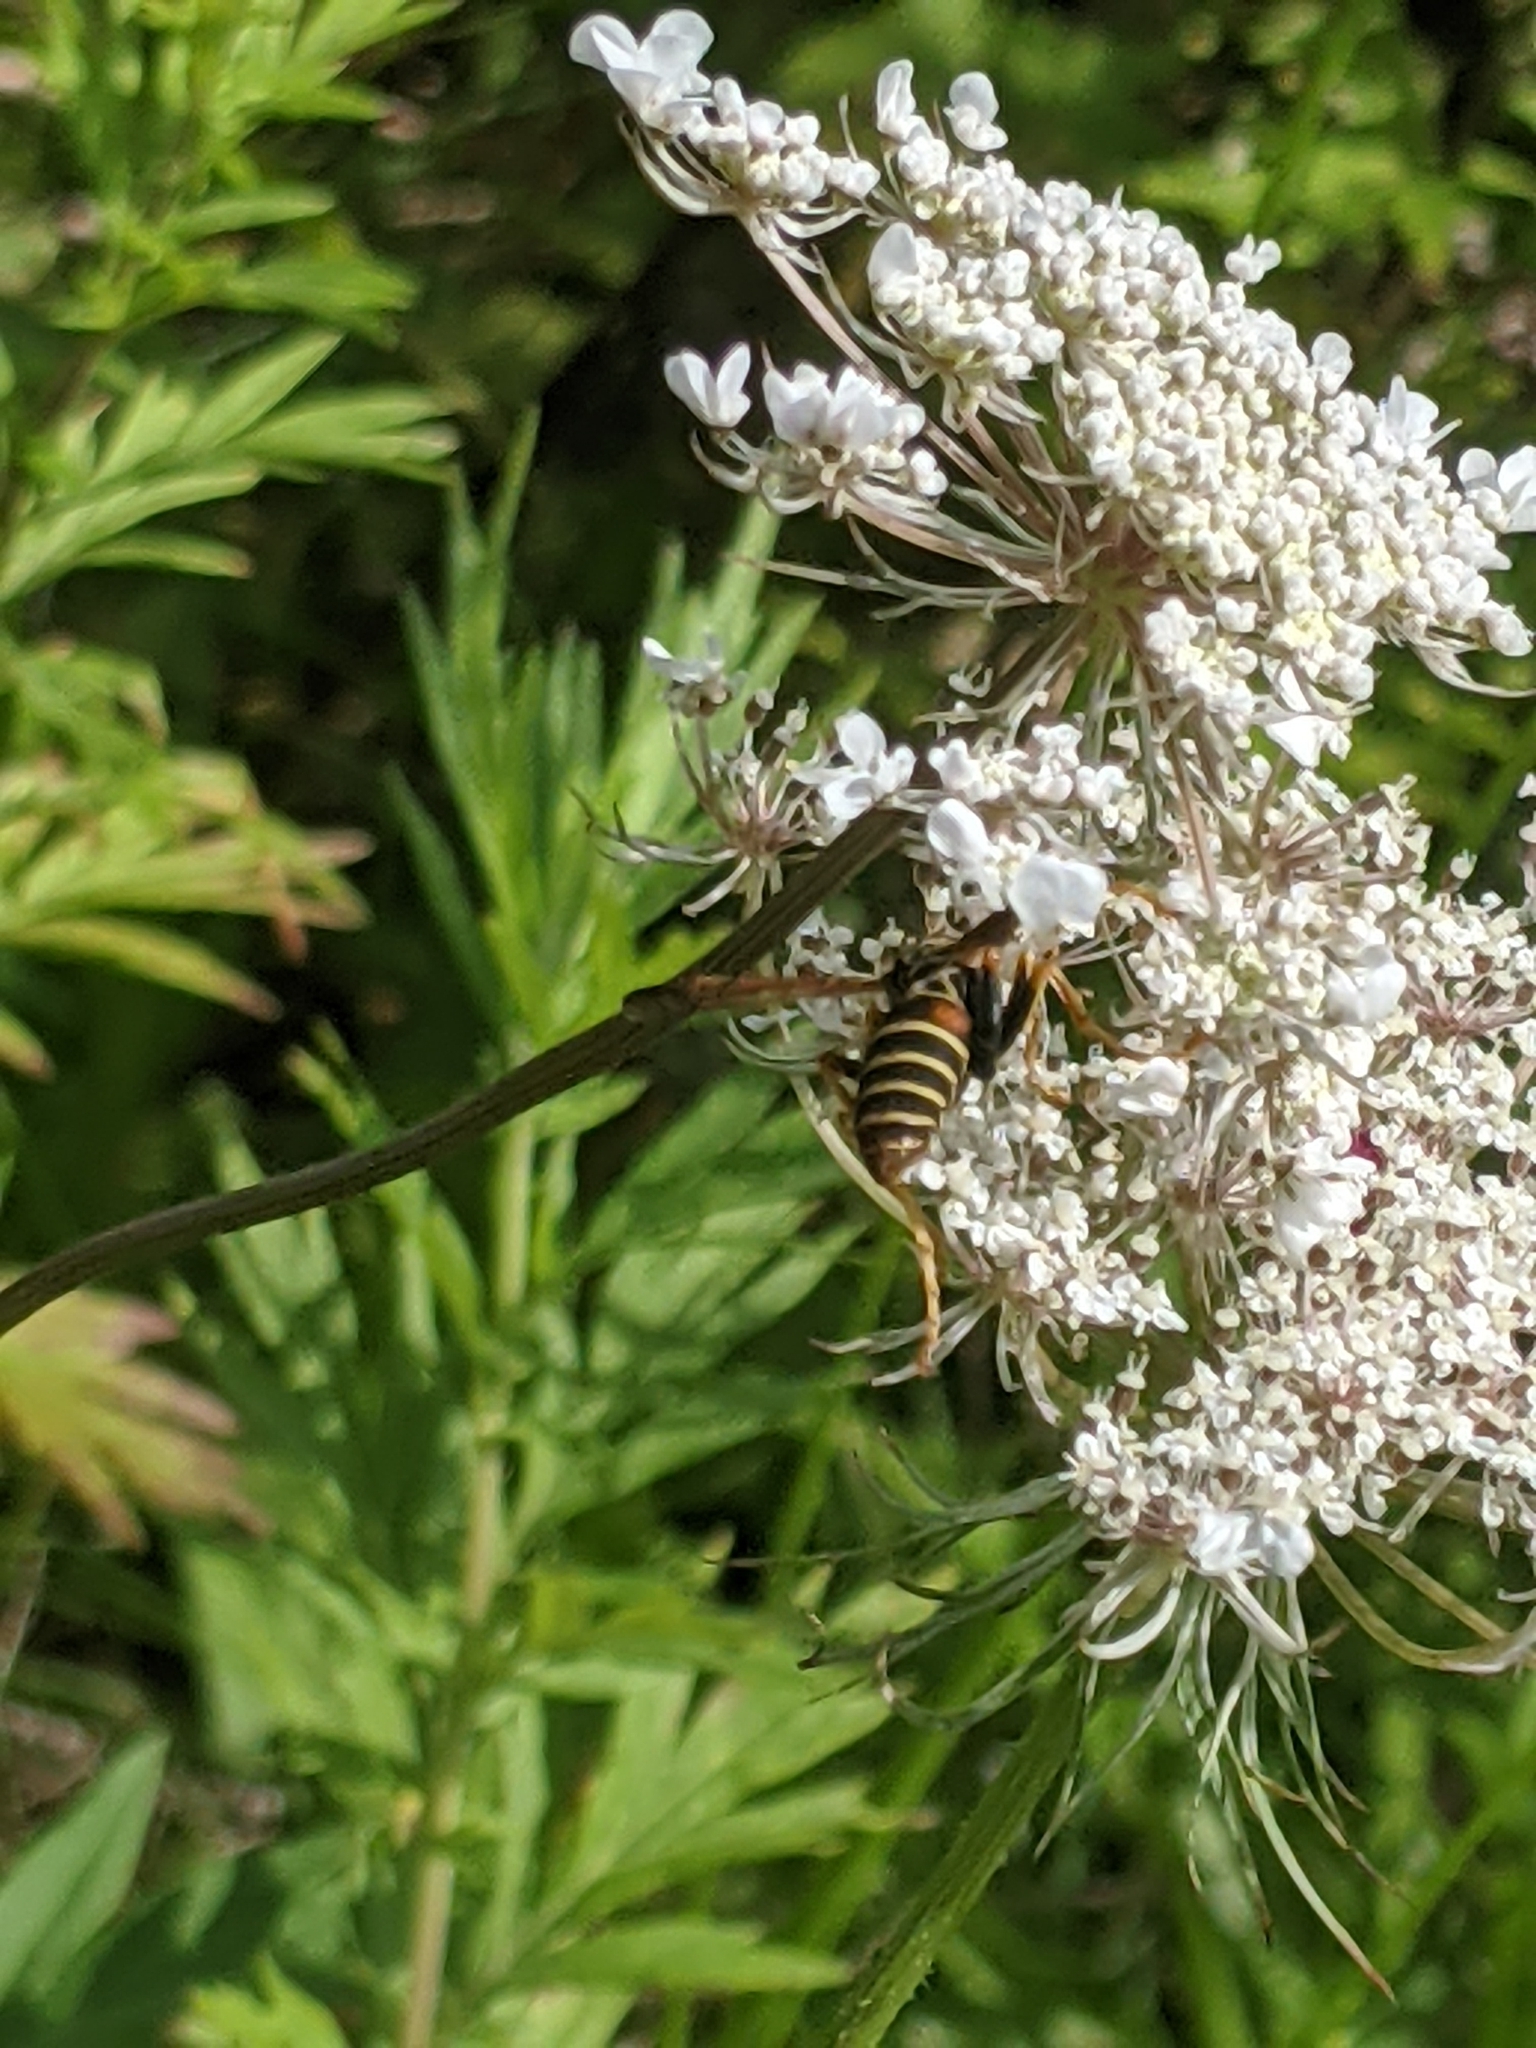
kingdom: Animalia
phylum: Arthropoda
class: Insecta
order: Hymenoptera
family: Eumenidae
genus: Polistes
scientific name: Polistes fuscatus
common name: Dark paper wasp
